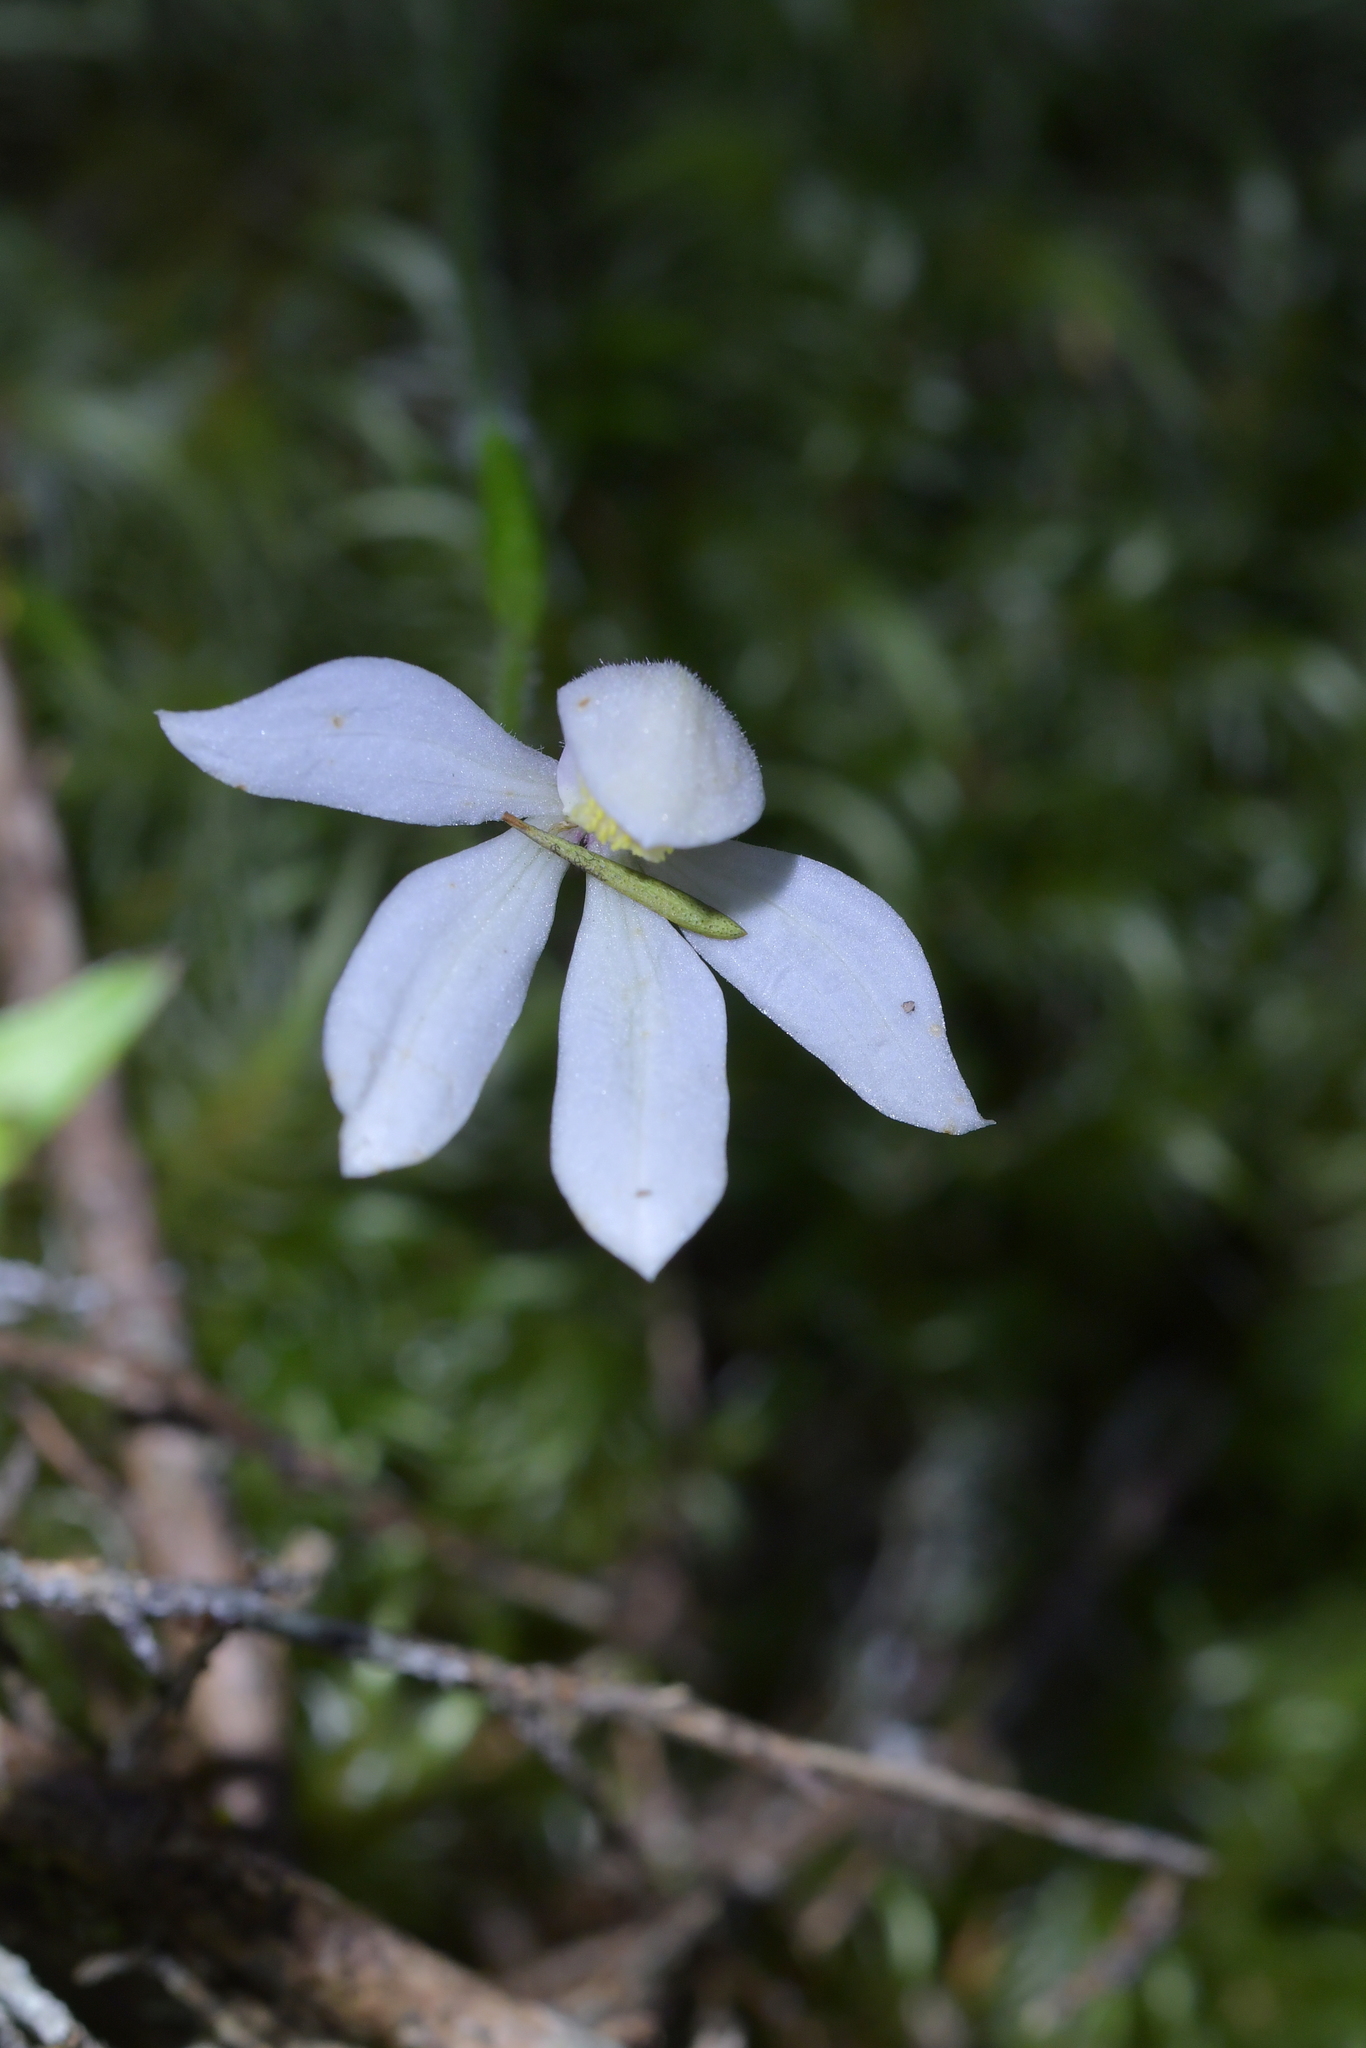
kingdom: Plantae
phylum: Tracheophyta
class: Liliopsida
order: Asparagales
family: Orchidaceae
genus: Caladenia
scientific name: Caladenia lyallii
